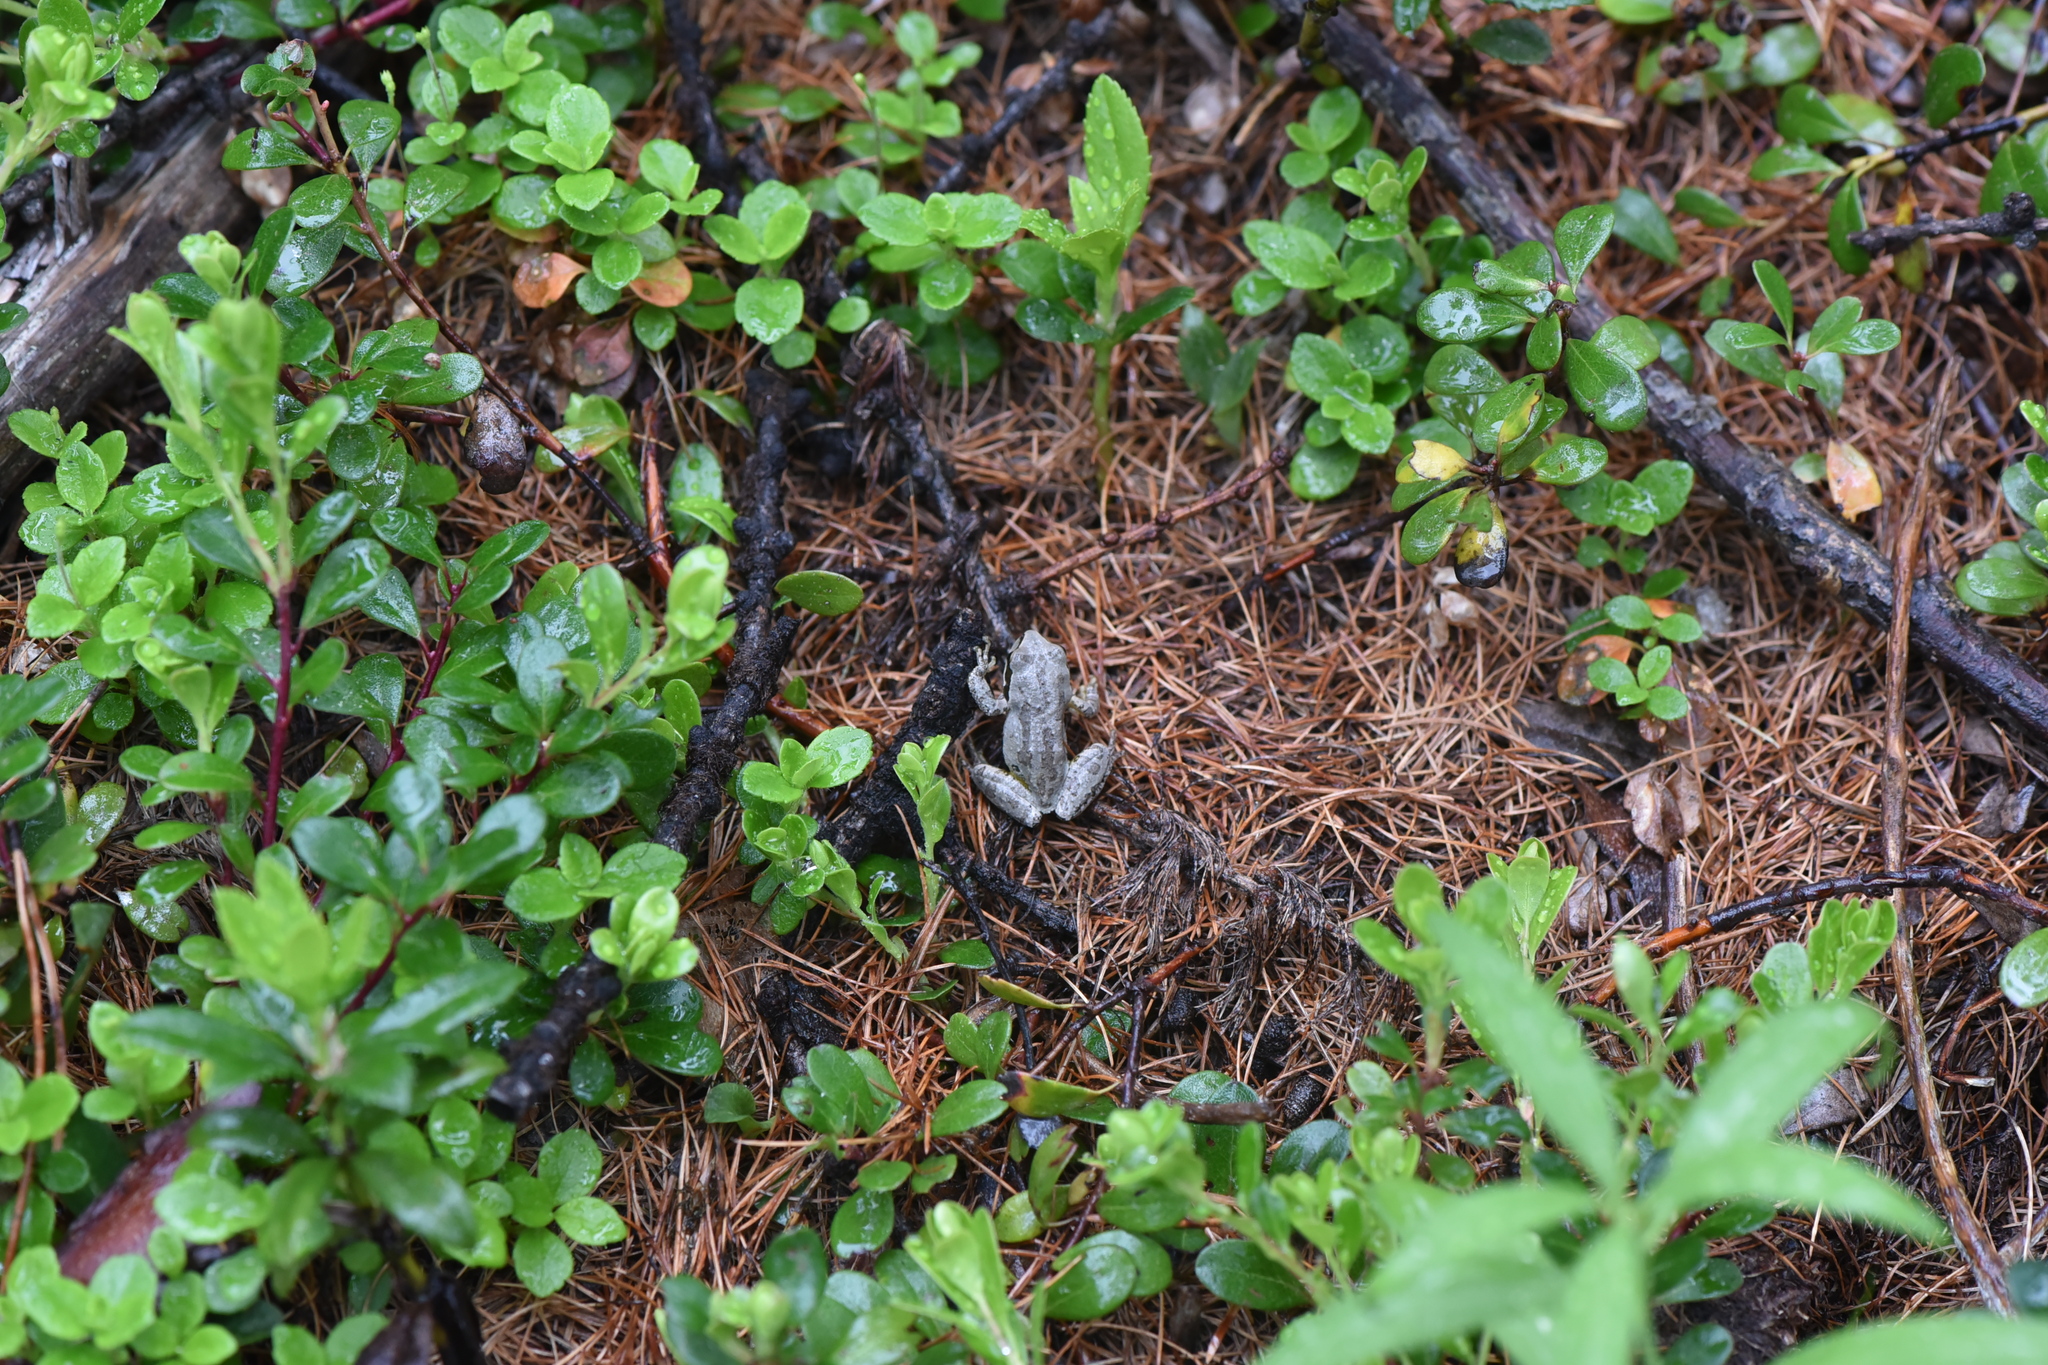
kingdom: Animalia
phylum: Chordata
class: Amphibia
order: Anura
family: Hylidae
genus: Pseudacris
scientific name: Pseudacris regilla
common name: Pacific chorus frog
